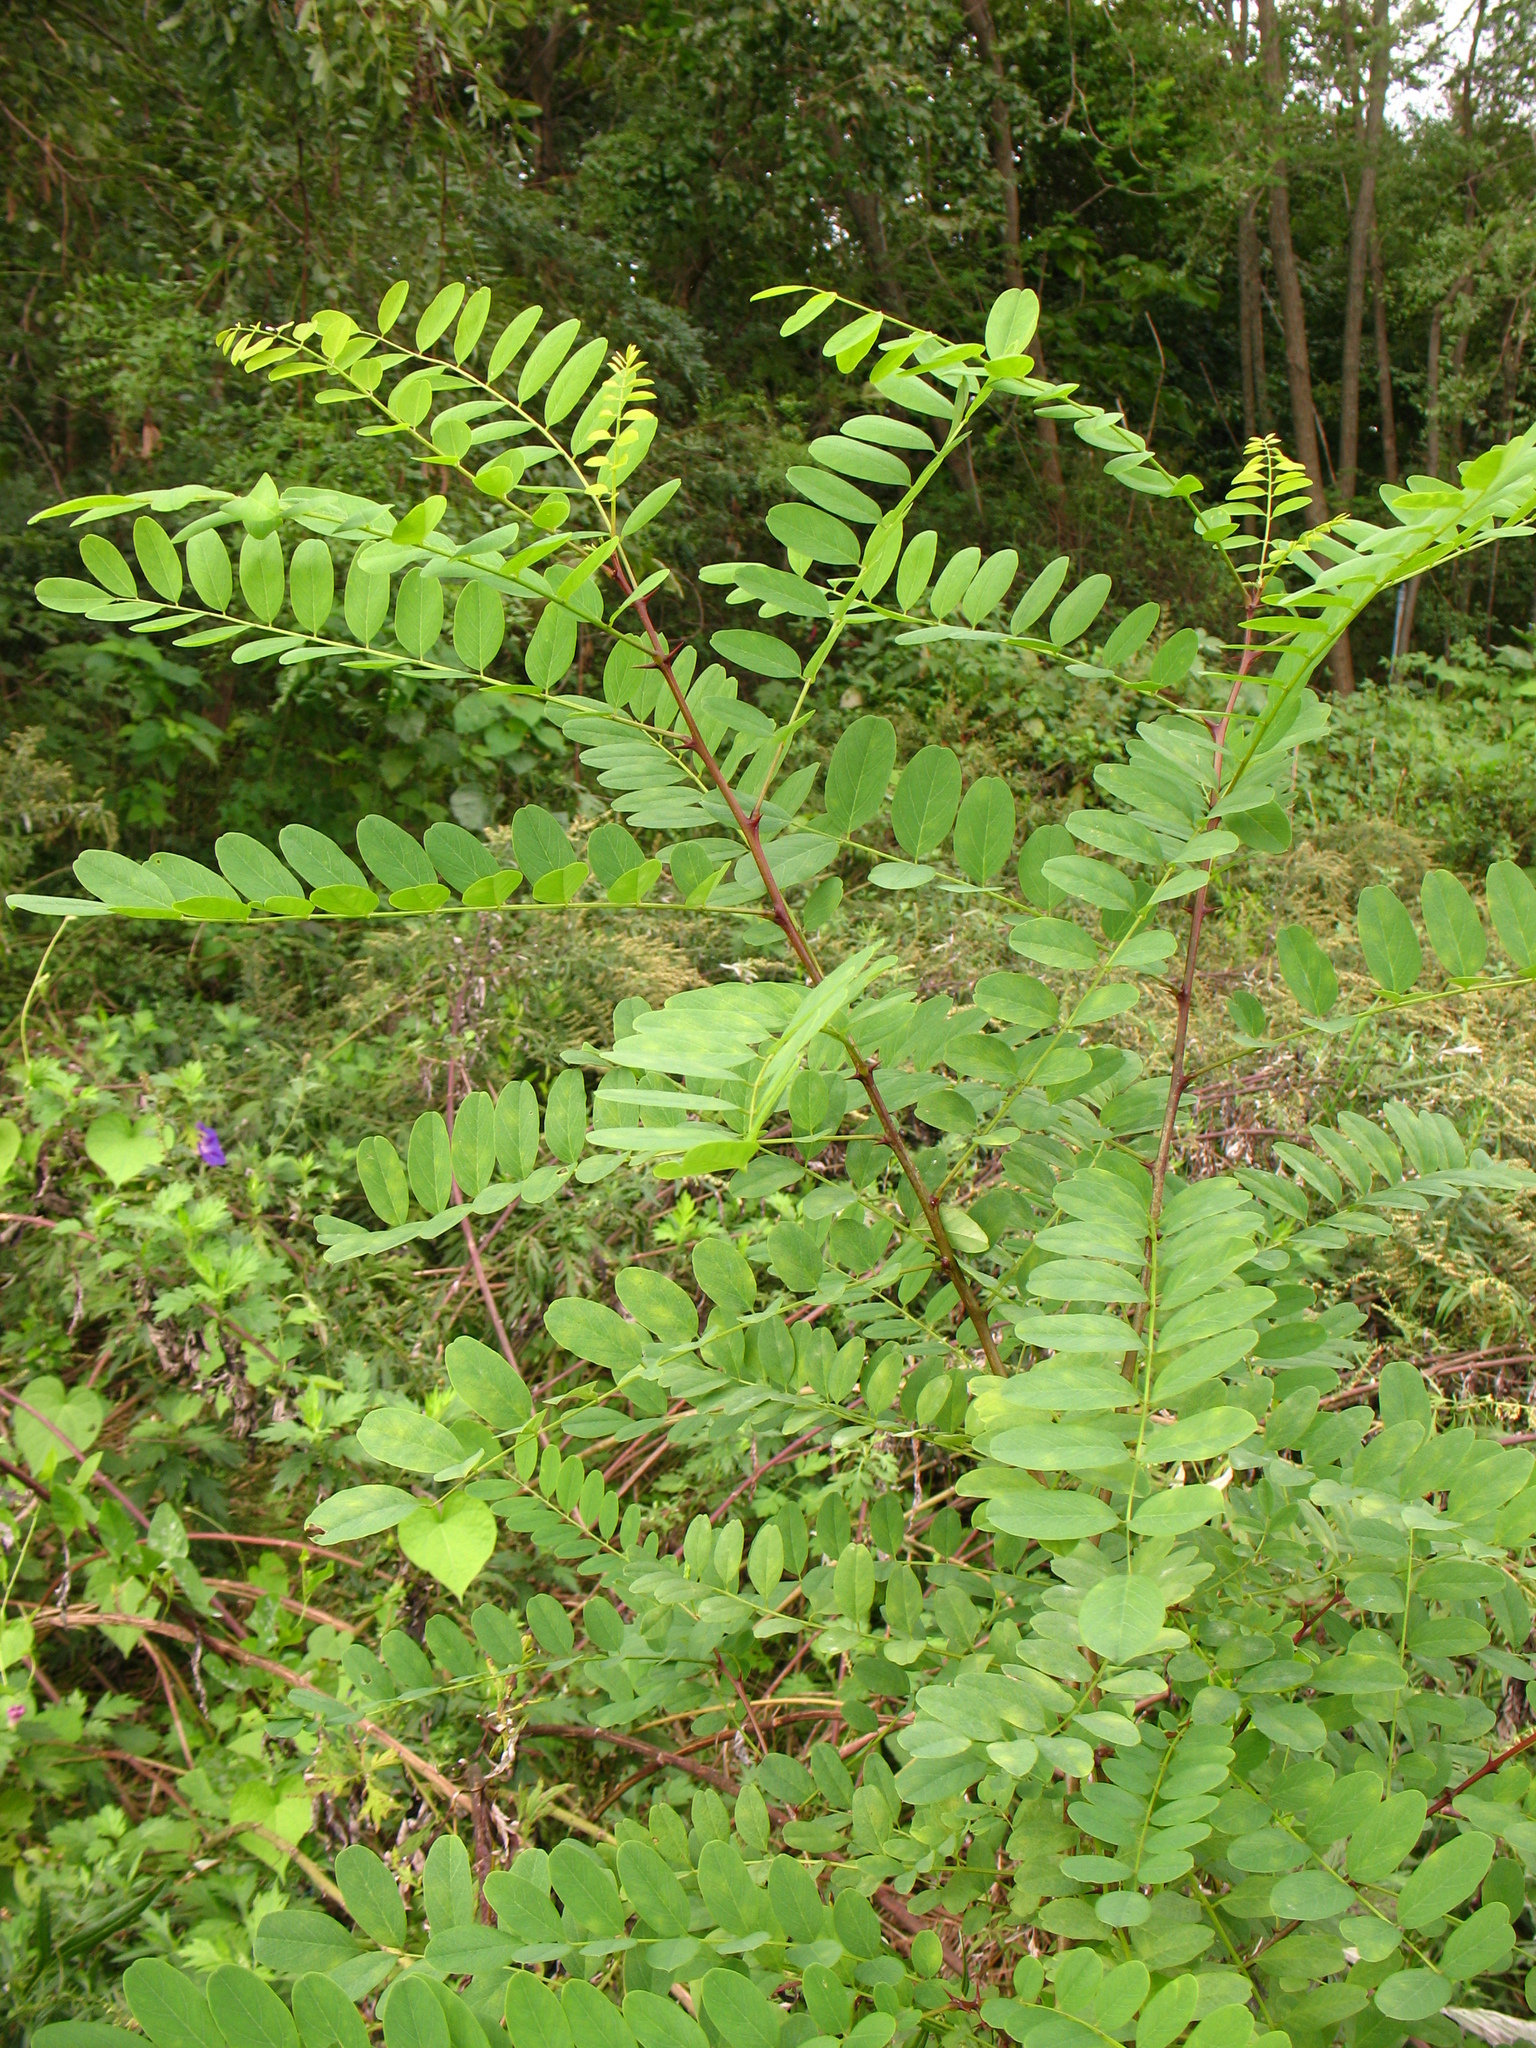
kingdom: Plantae
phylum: Tracheophyta
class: Magnoliopsida
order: Fabales
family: Fabaceae
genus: Robinia
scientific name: Robinia pseudoacacia
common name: Black locust
